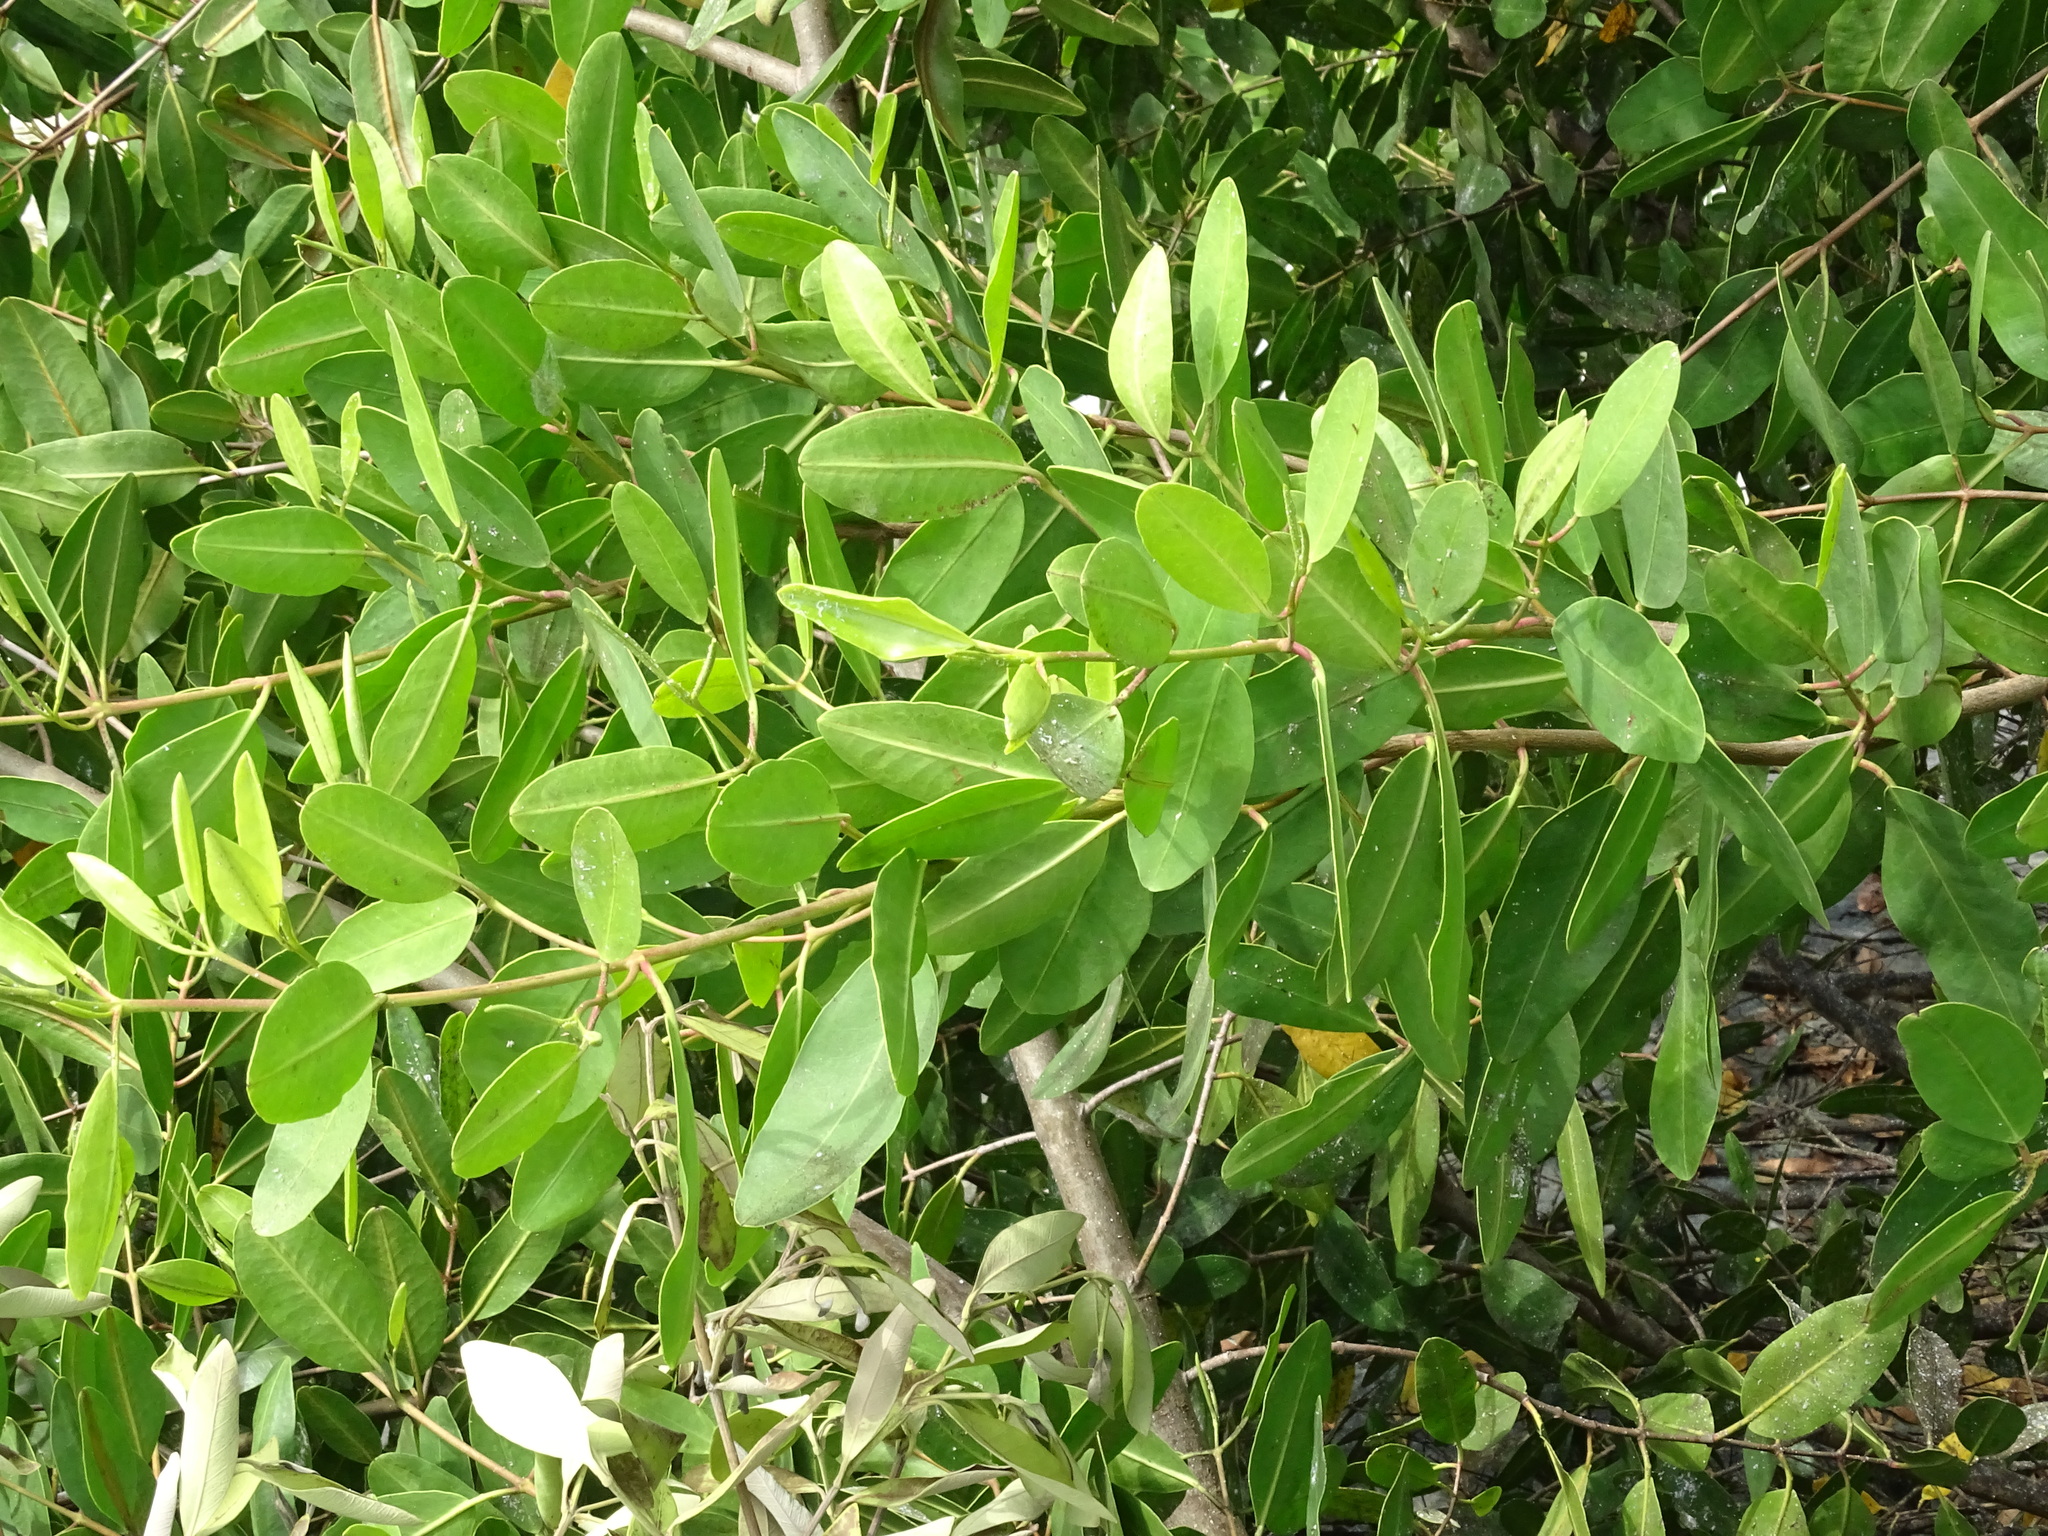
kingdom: Plantae
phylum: Tracheophyta
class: Magnoliopsida
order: Myrtales
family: Combretaceae
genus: Laguncularia
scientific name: Laguncularia racemosa
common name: White mangrove
